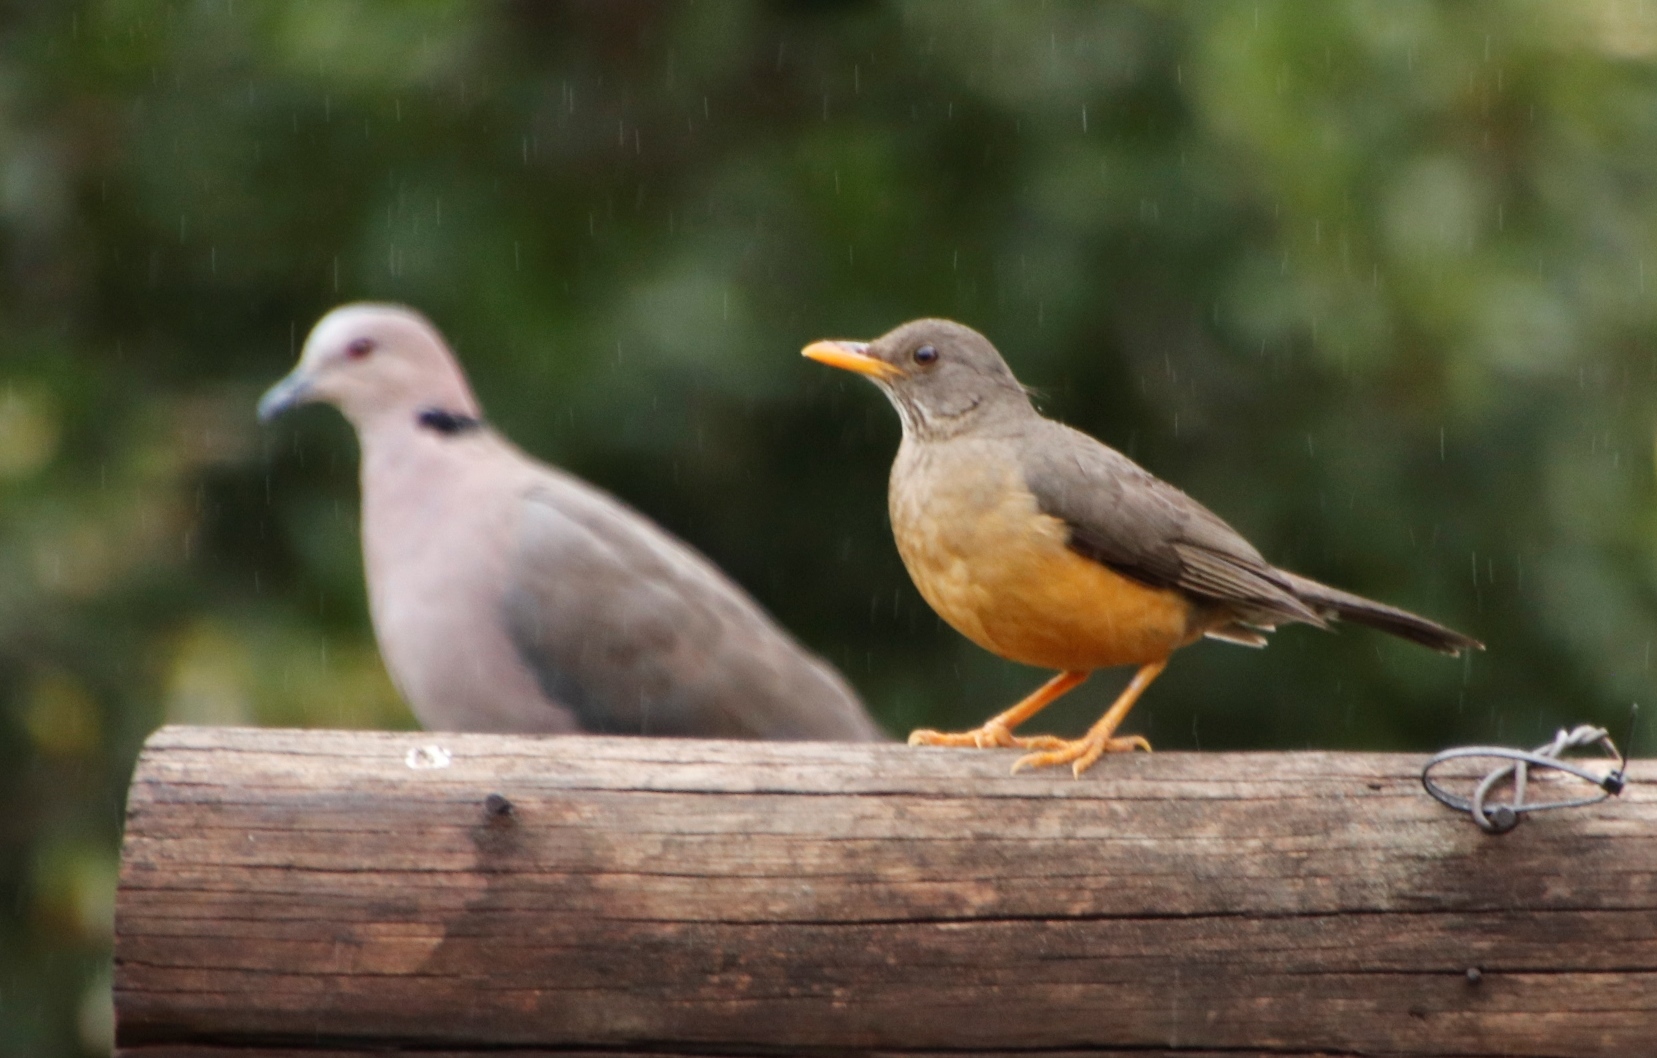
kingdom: Animalia
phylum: Chordata
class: Aves
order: Passeriformes
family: Turdidae
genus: Turdus
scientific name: Turdus olivaceus
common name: Olive thrush
